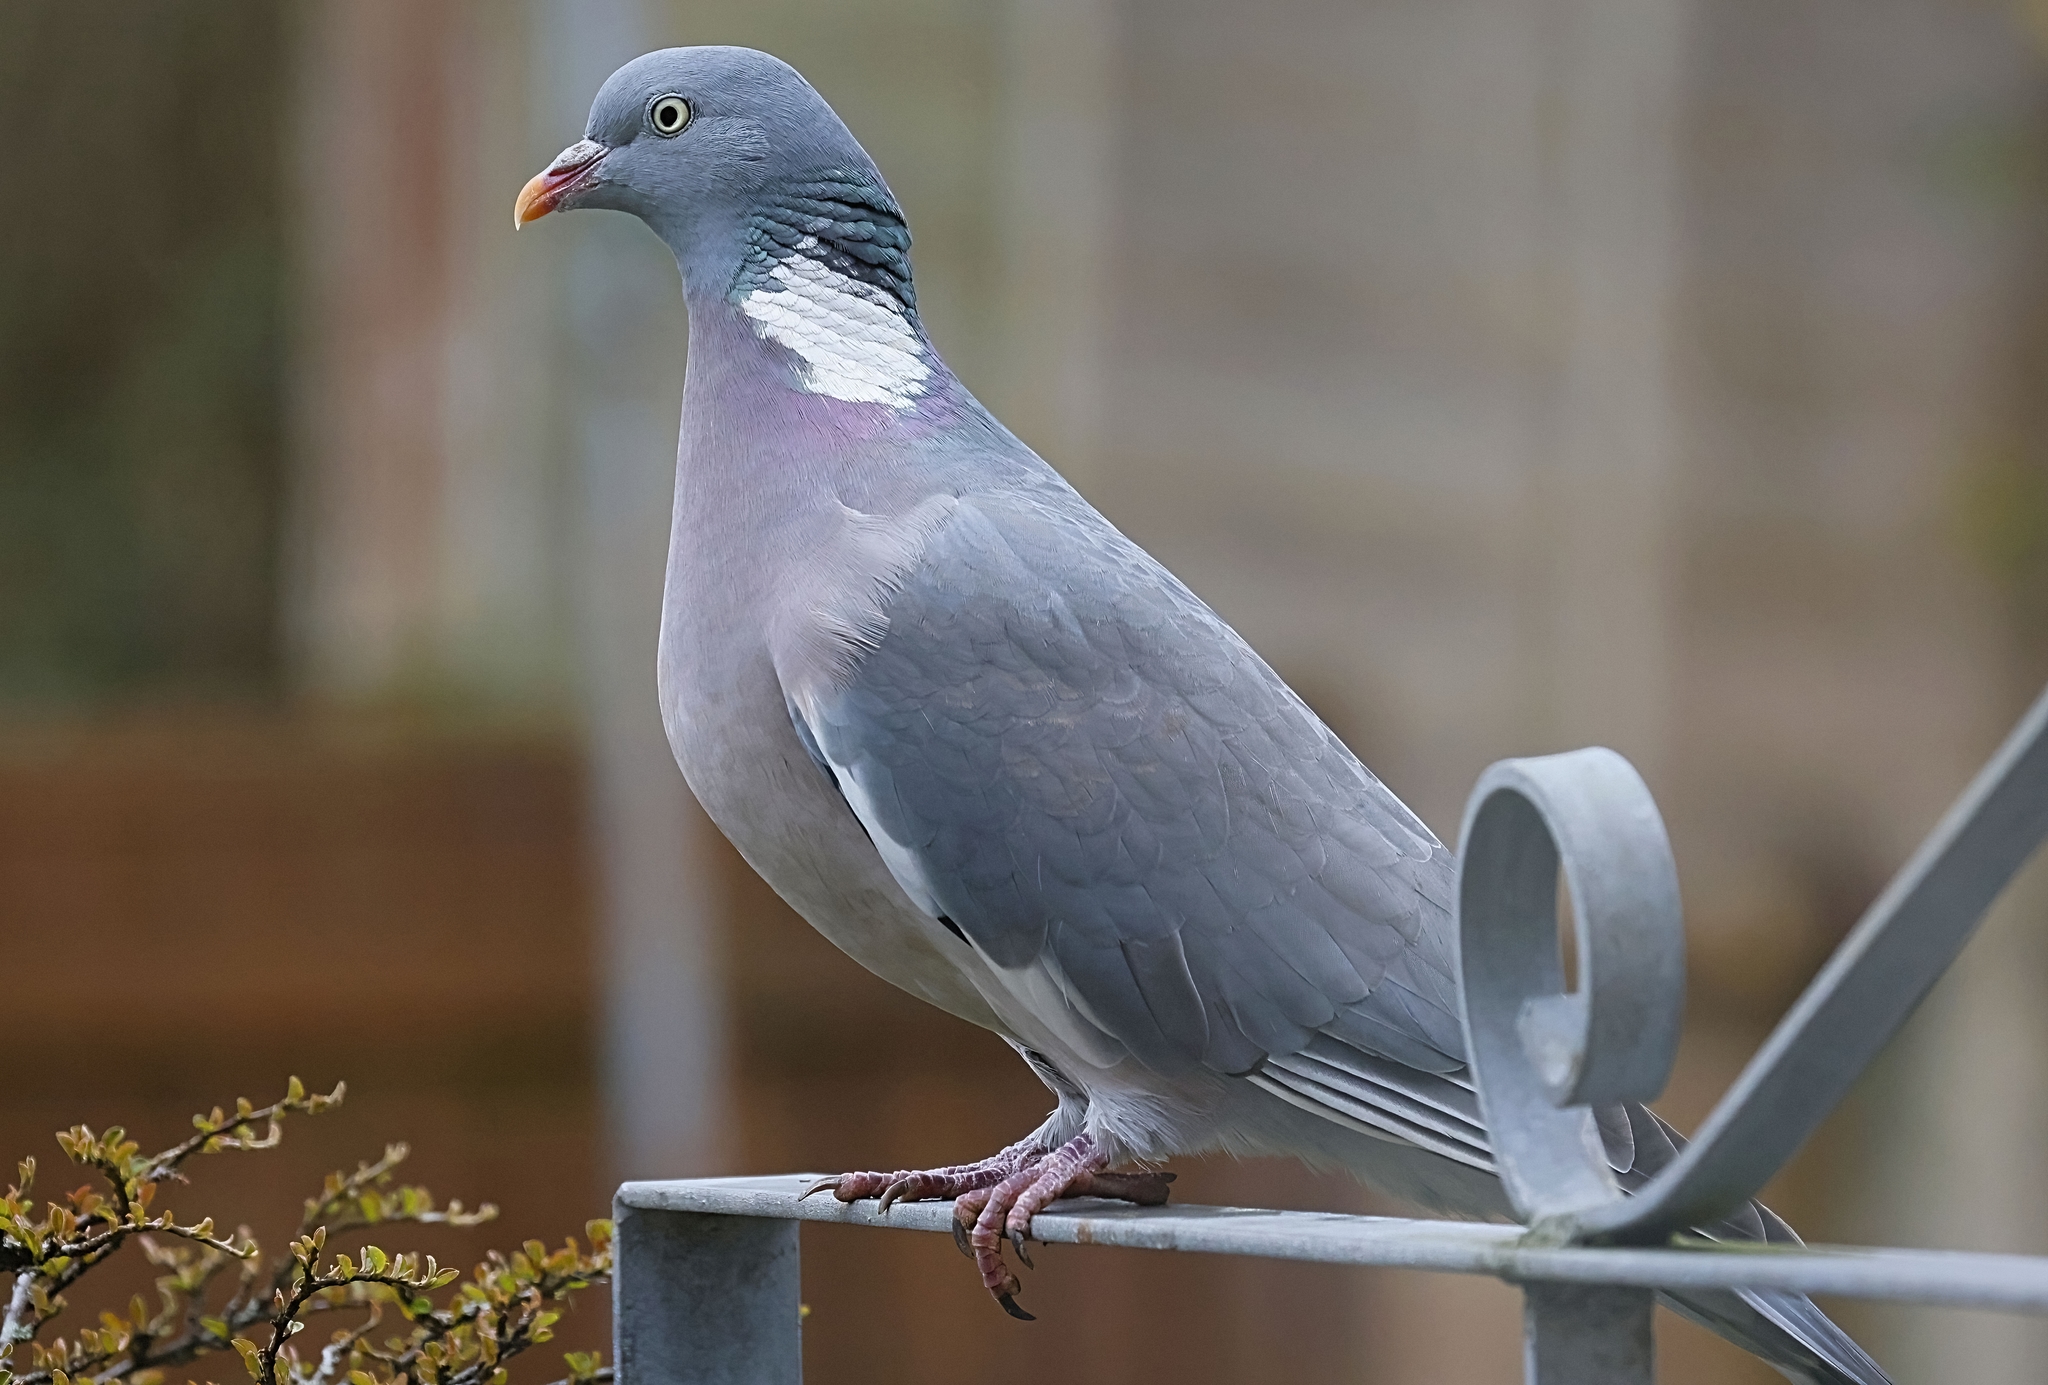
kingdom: Animalia
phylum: Chordata
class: Aves
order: Columbiformes
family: Columbidae
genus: Columba
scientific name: Columba palumbus
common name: Common wood pigeon
